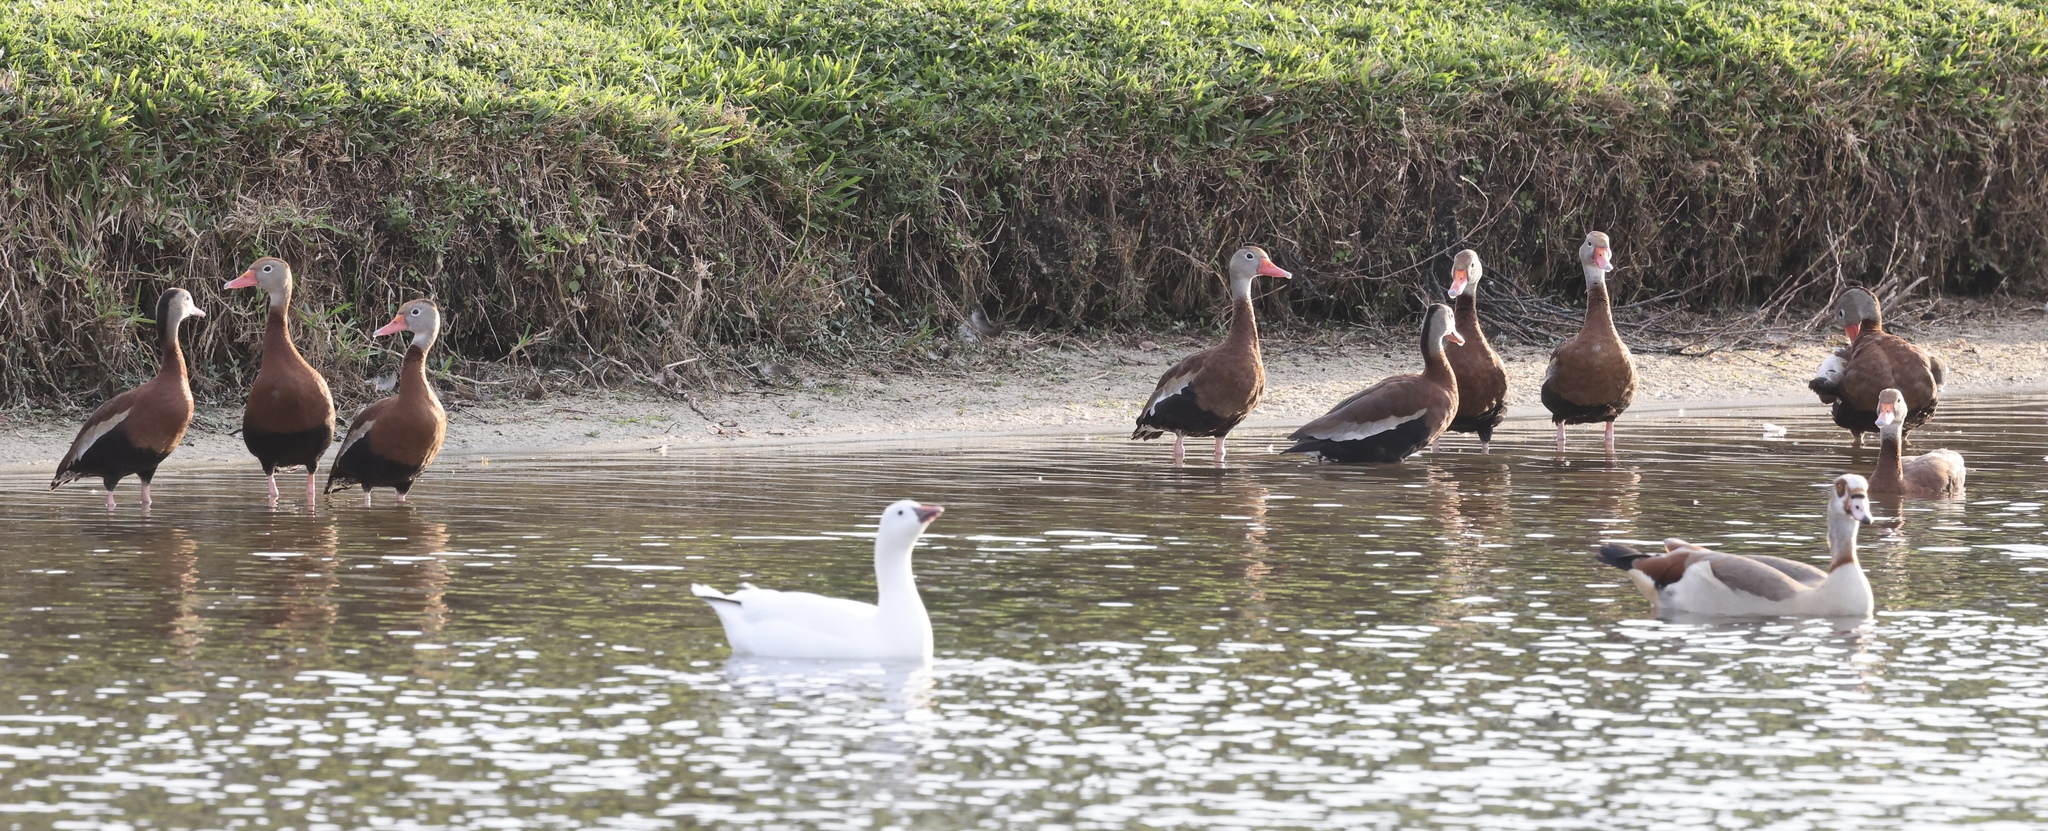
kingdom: Animalia
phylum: Chordata
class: Aves
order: Anseriformes
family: Anatidae
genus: Anser
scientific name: Anser rossii
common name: Ross's goose
